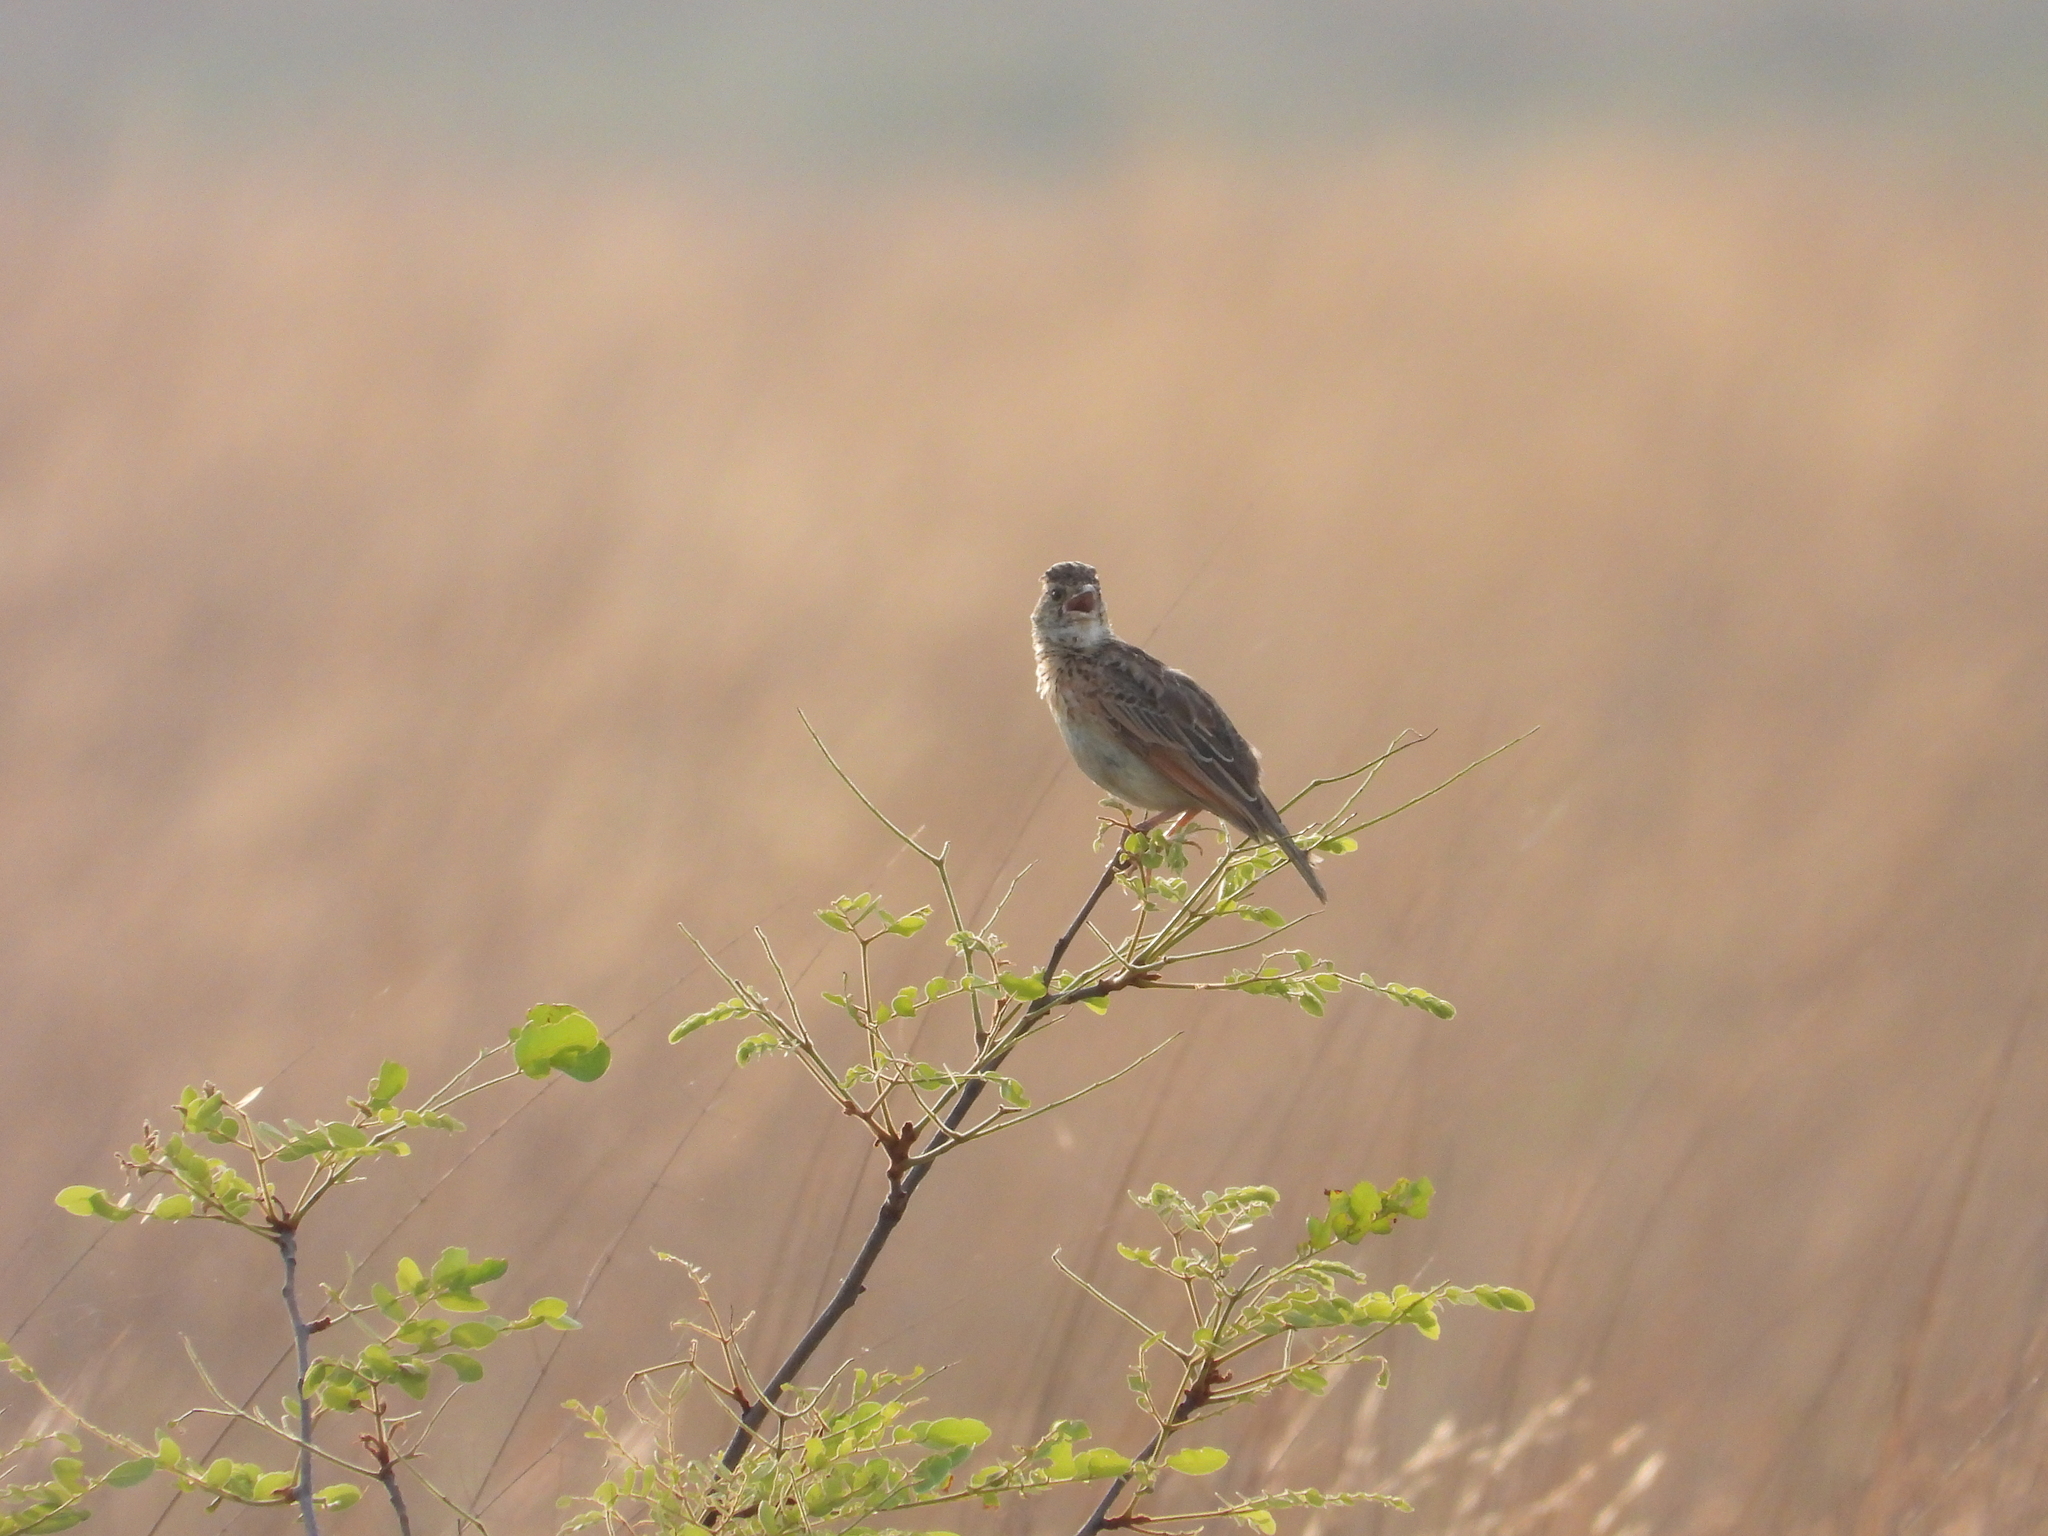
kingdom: Animalia
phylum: Chordata
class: Aves
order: Passeriformes
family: Alaudidae
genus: Mirafra
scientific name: Mirafra africana
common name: Rufous-naped lark
